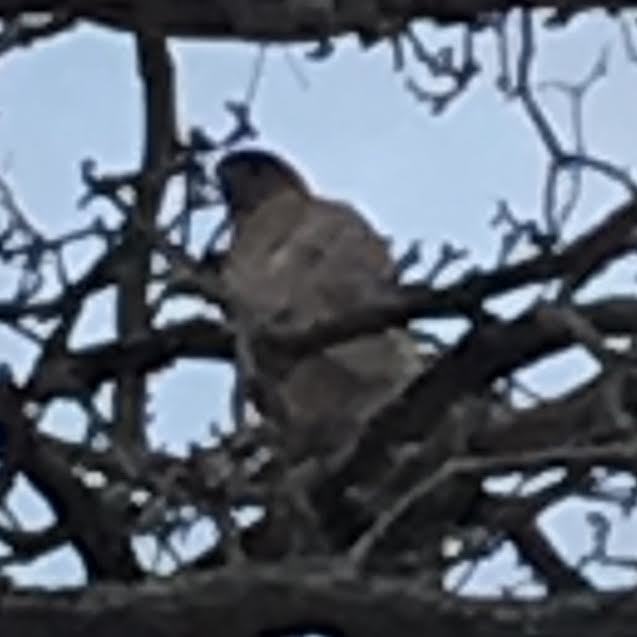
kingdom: Animalia
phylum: Chordata
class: Aves
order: Accipitriformes
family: Accipitridae
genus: Accipiter
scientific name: Accipiter cooperii
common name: Cooper's hawk
